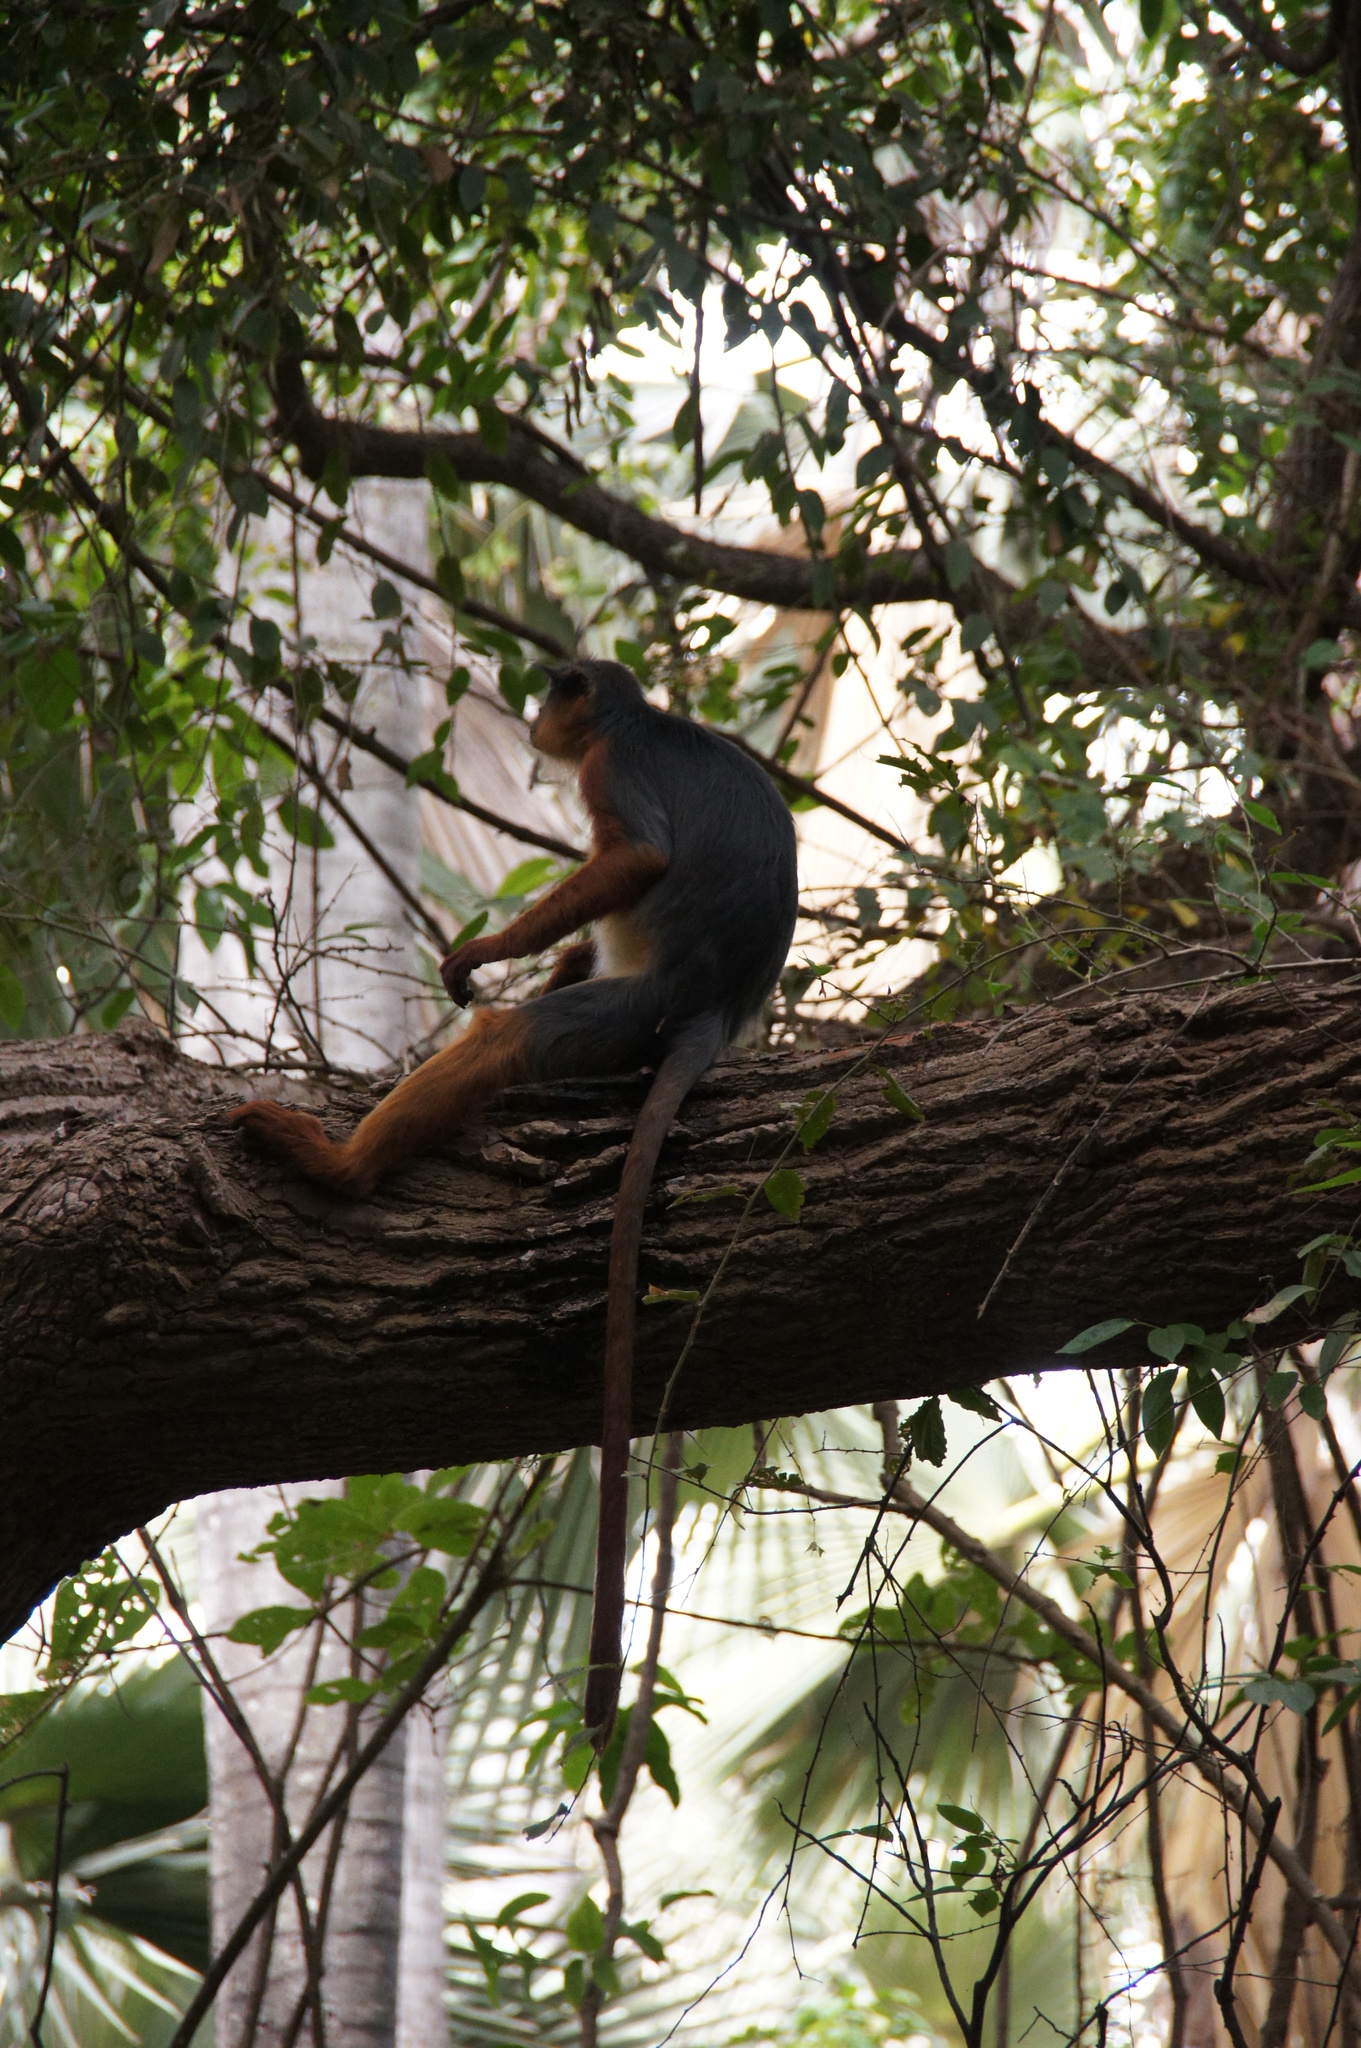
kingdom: Animalia
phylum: Chordata
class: Mammalia
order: Primates
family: Cercopithecidae
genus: Piliocolobus
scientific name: Piliocolobus badius
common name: Western red colobus
